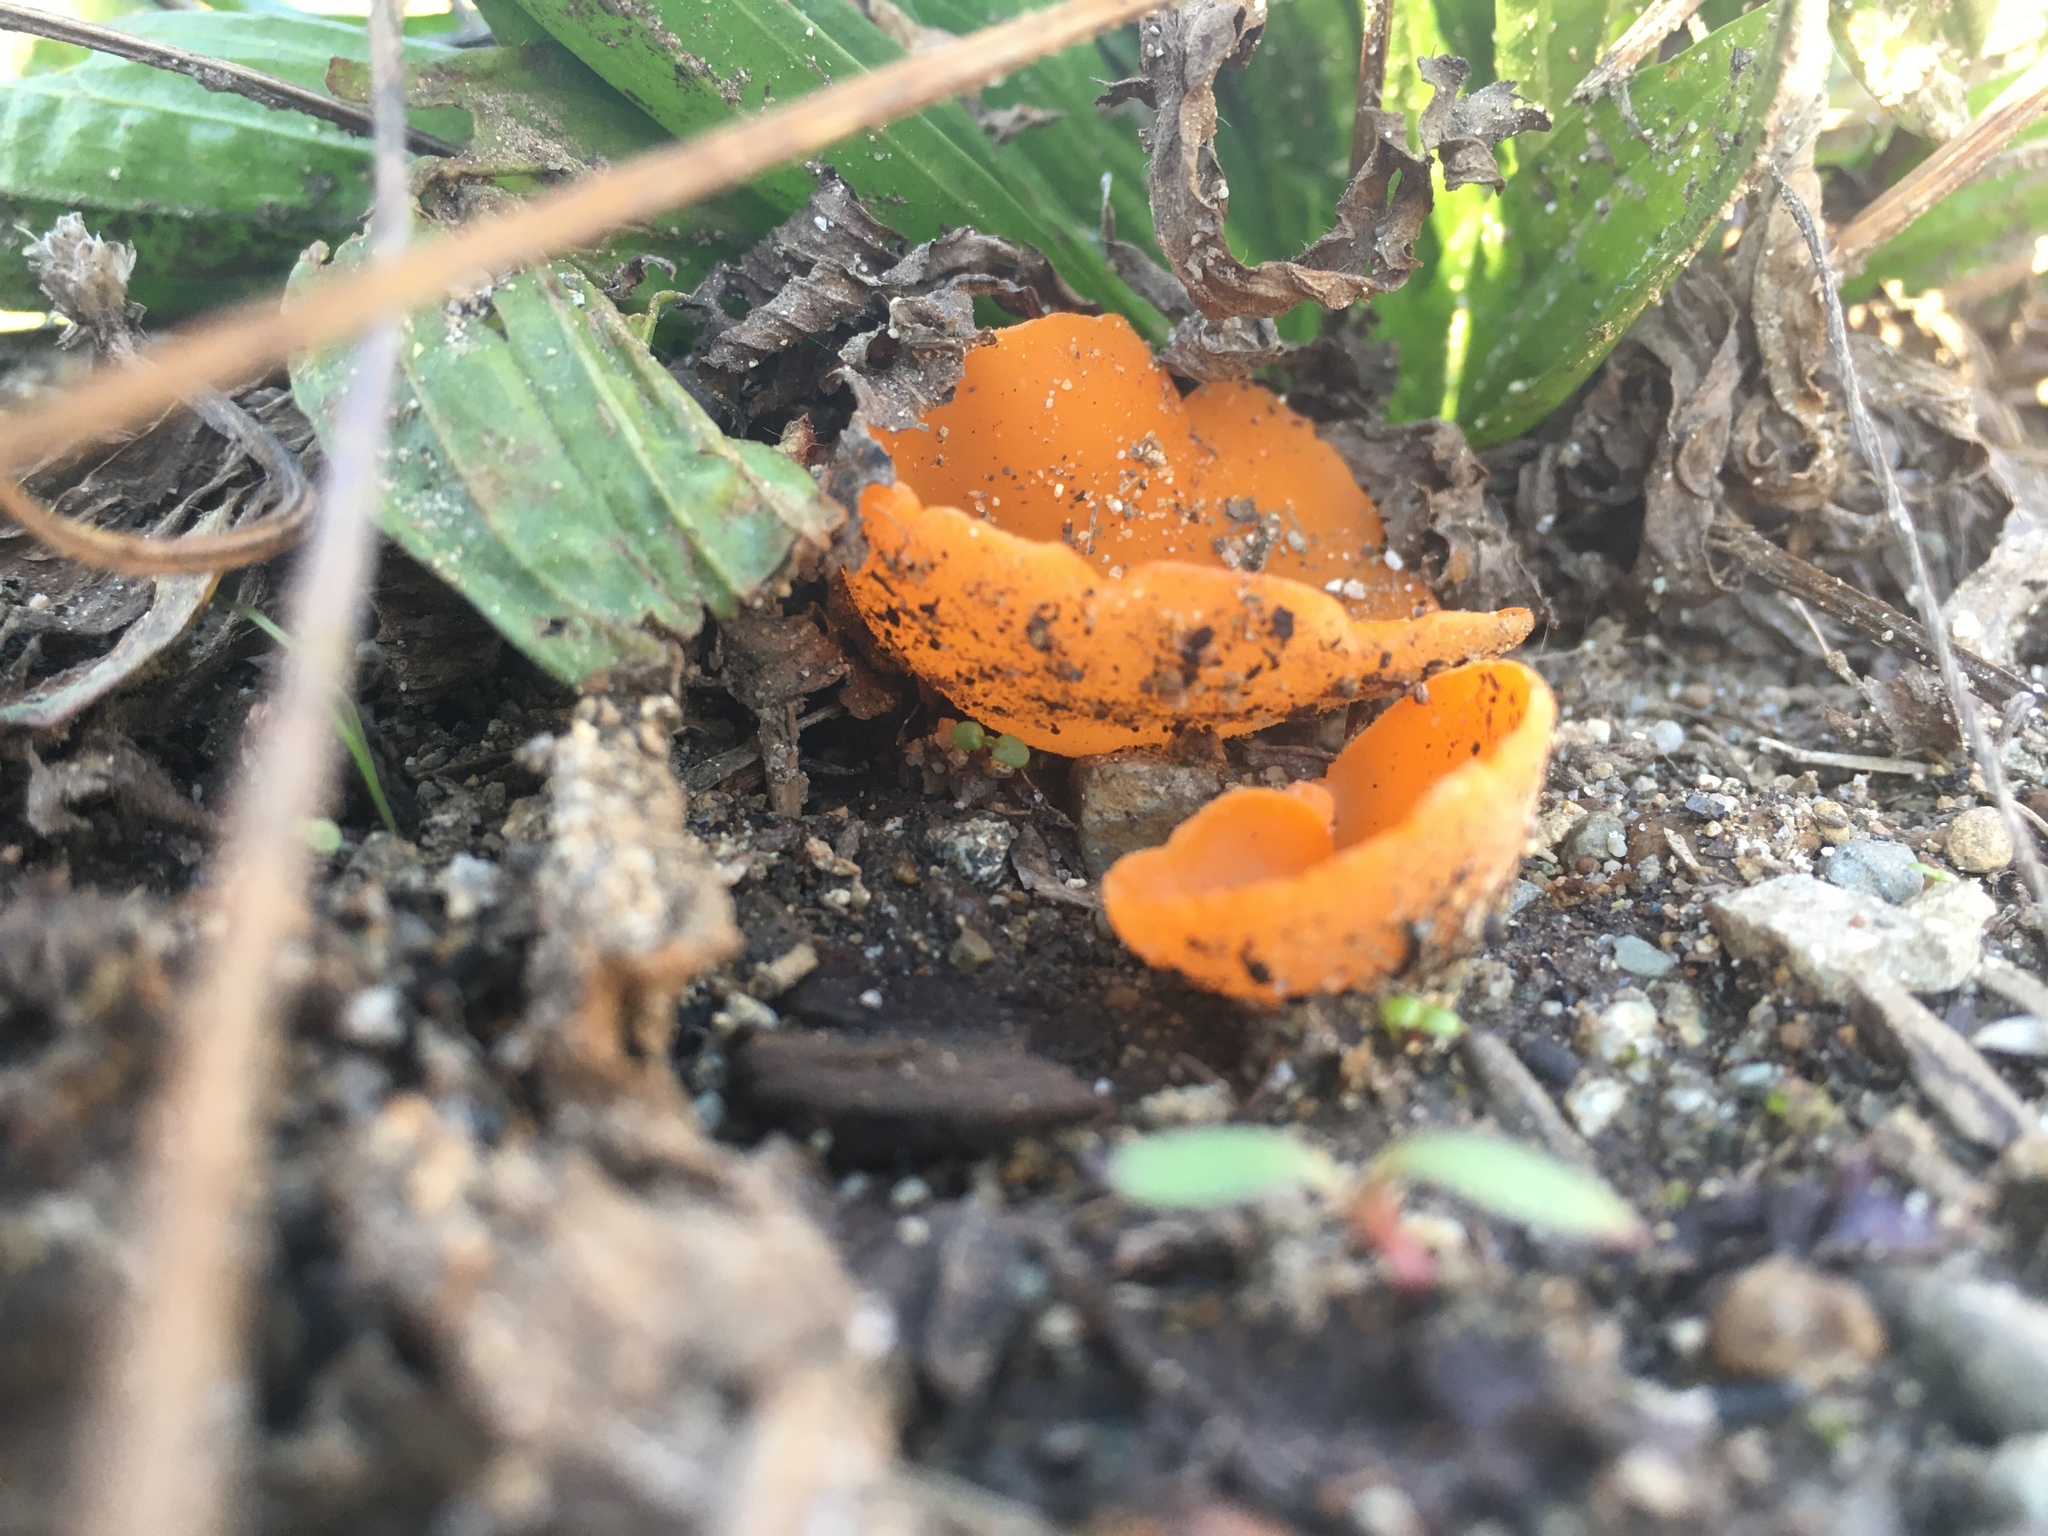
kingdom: Fungi
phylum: Ascomycota
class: Pezizomycetes
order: Pezizales
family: Pyronemataceae
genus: Aleuria
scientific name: Aleuria aurantia
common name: Orange peel fungus
